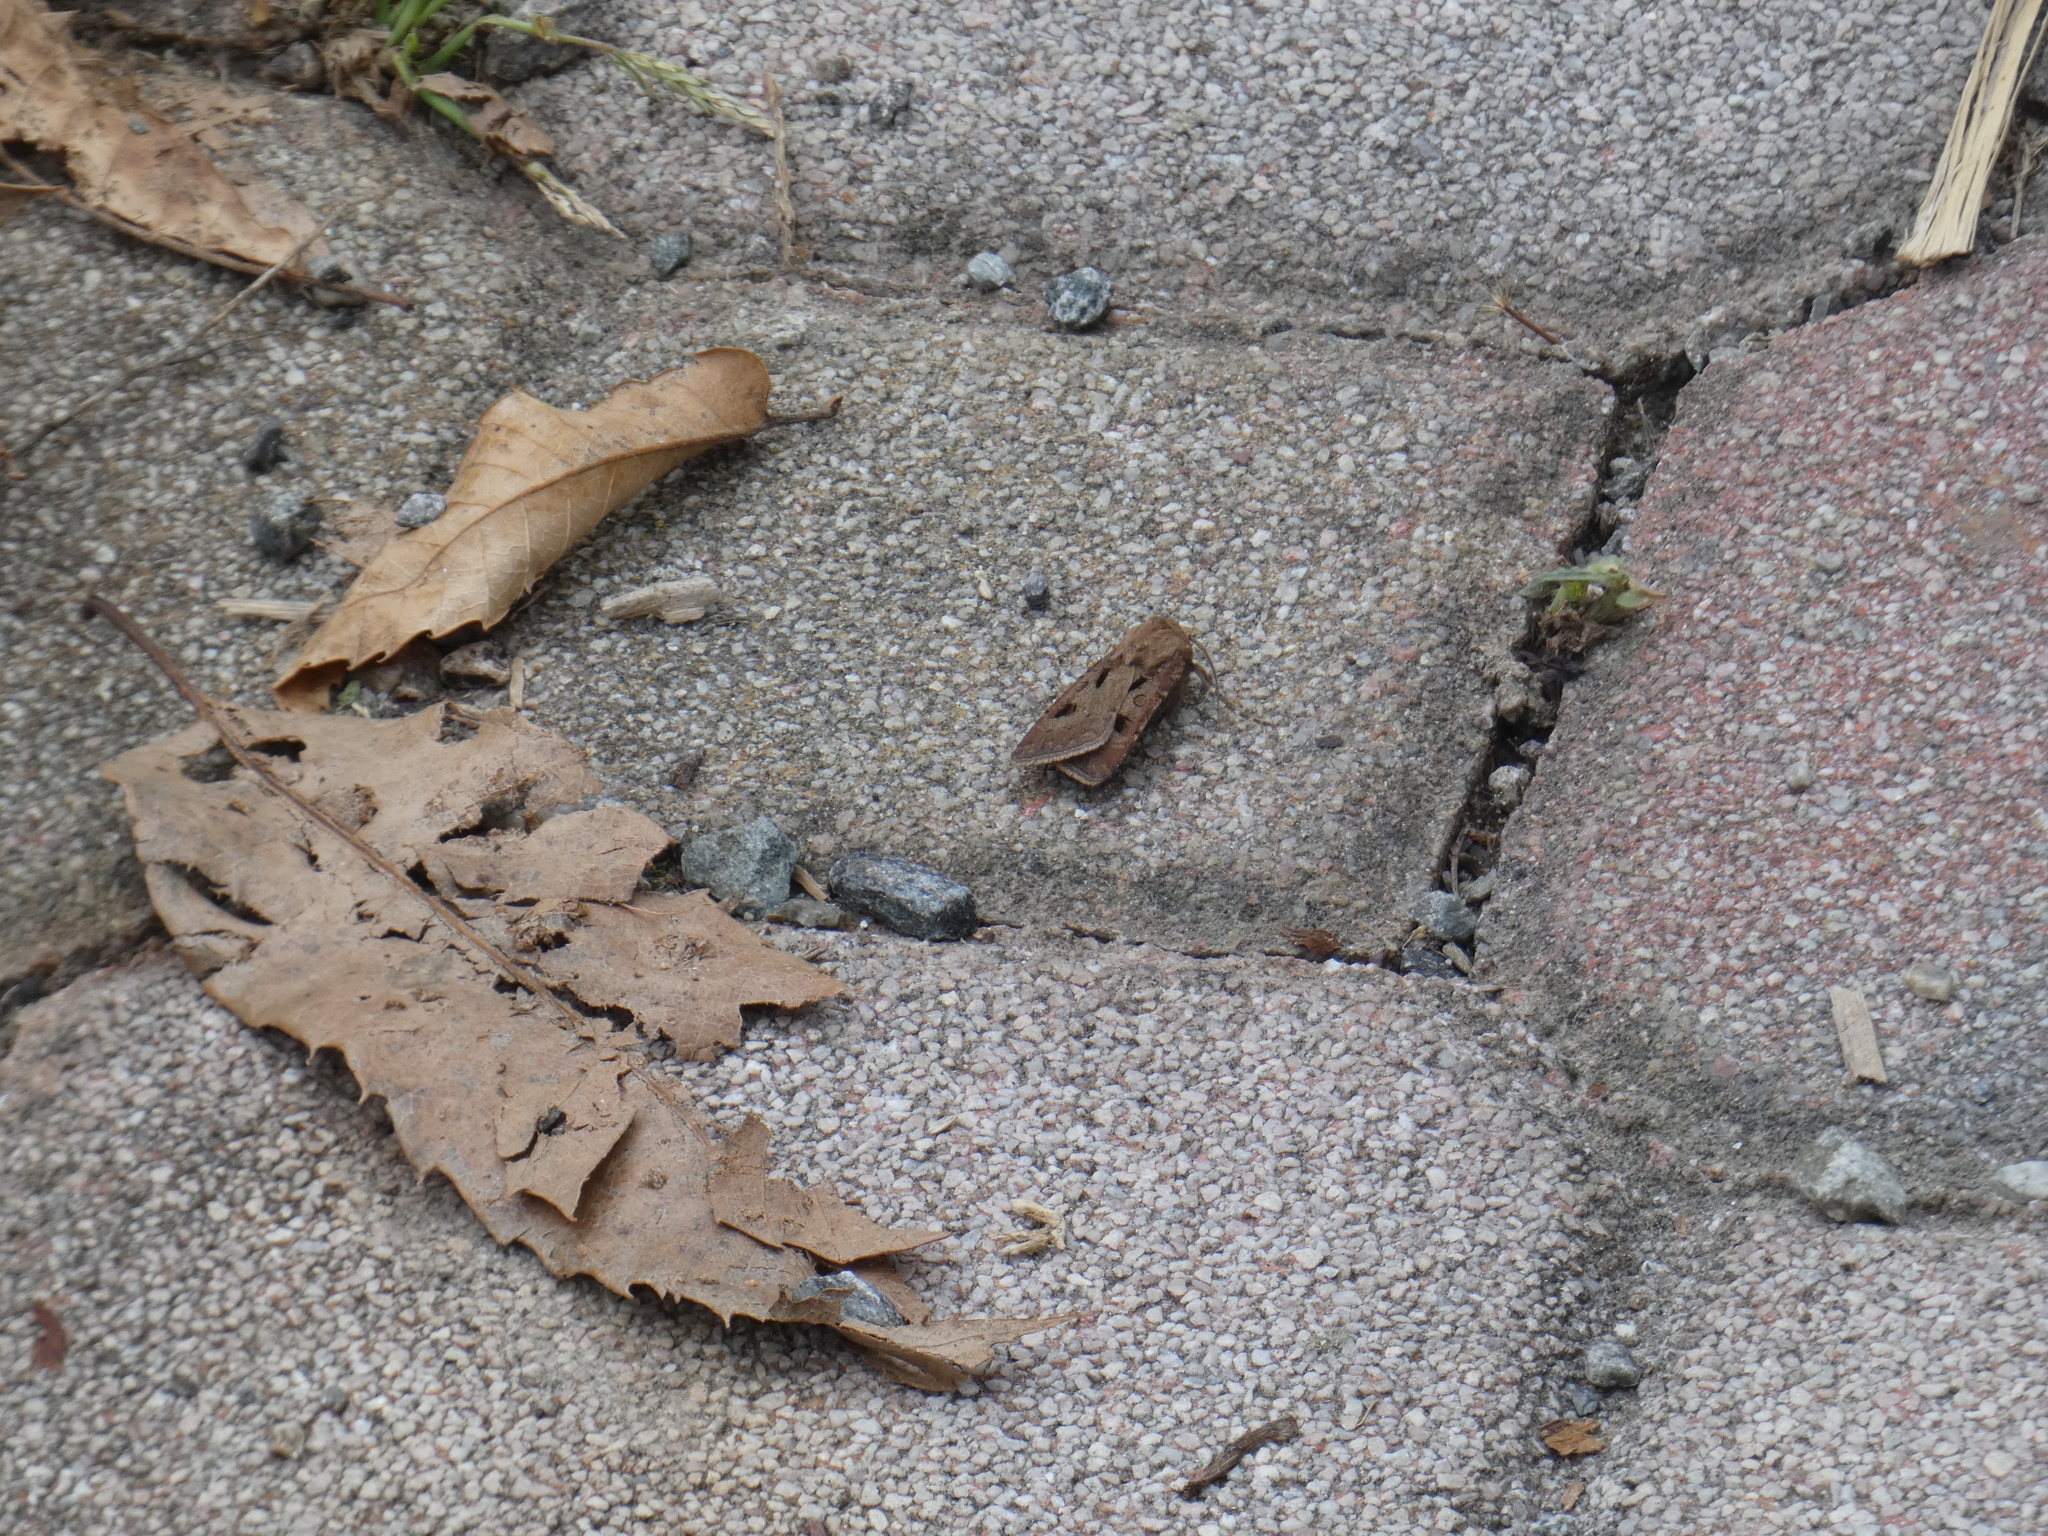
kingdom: Animalia
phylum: Arthropoda
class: Insecta
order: Lepidoptera
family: Noctuidae
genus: Agrotis
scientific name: Agrotis exclamationis
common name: Heart and dart
